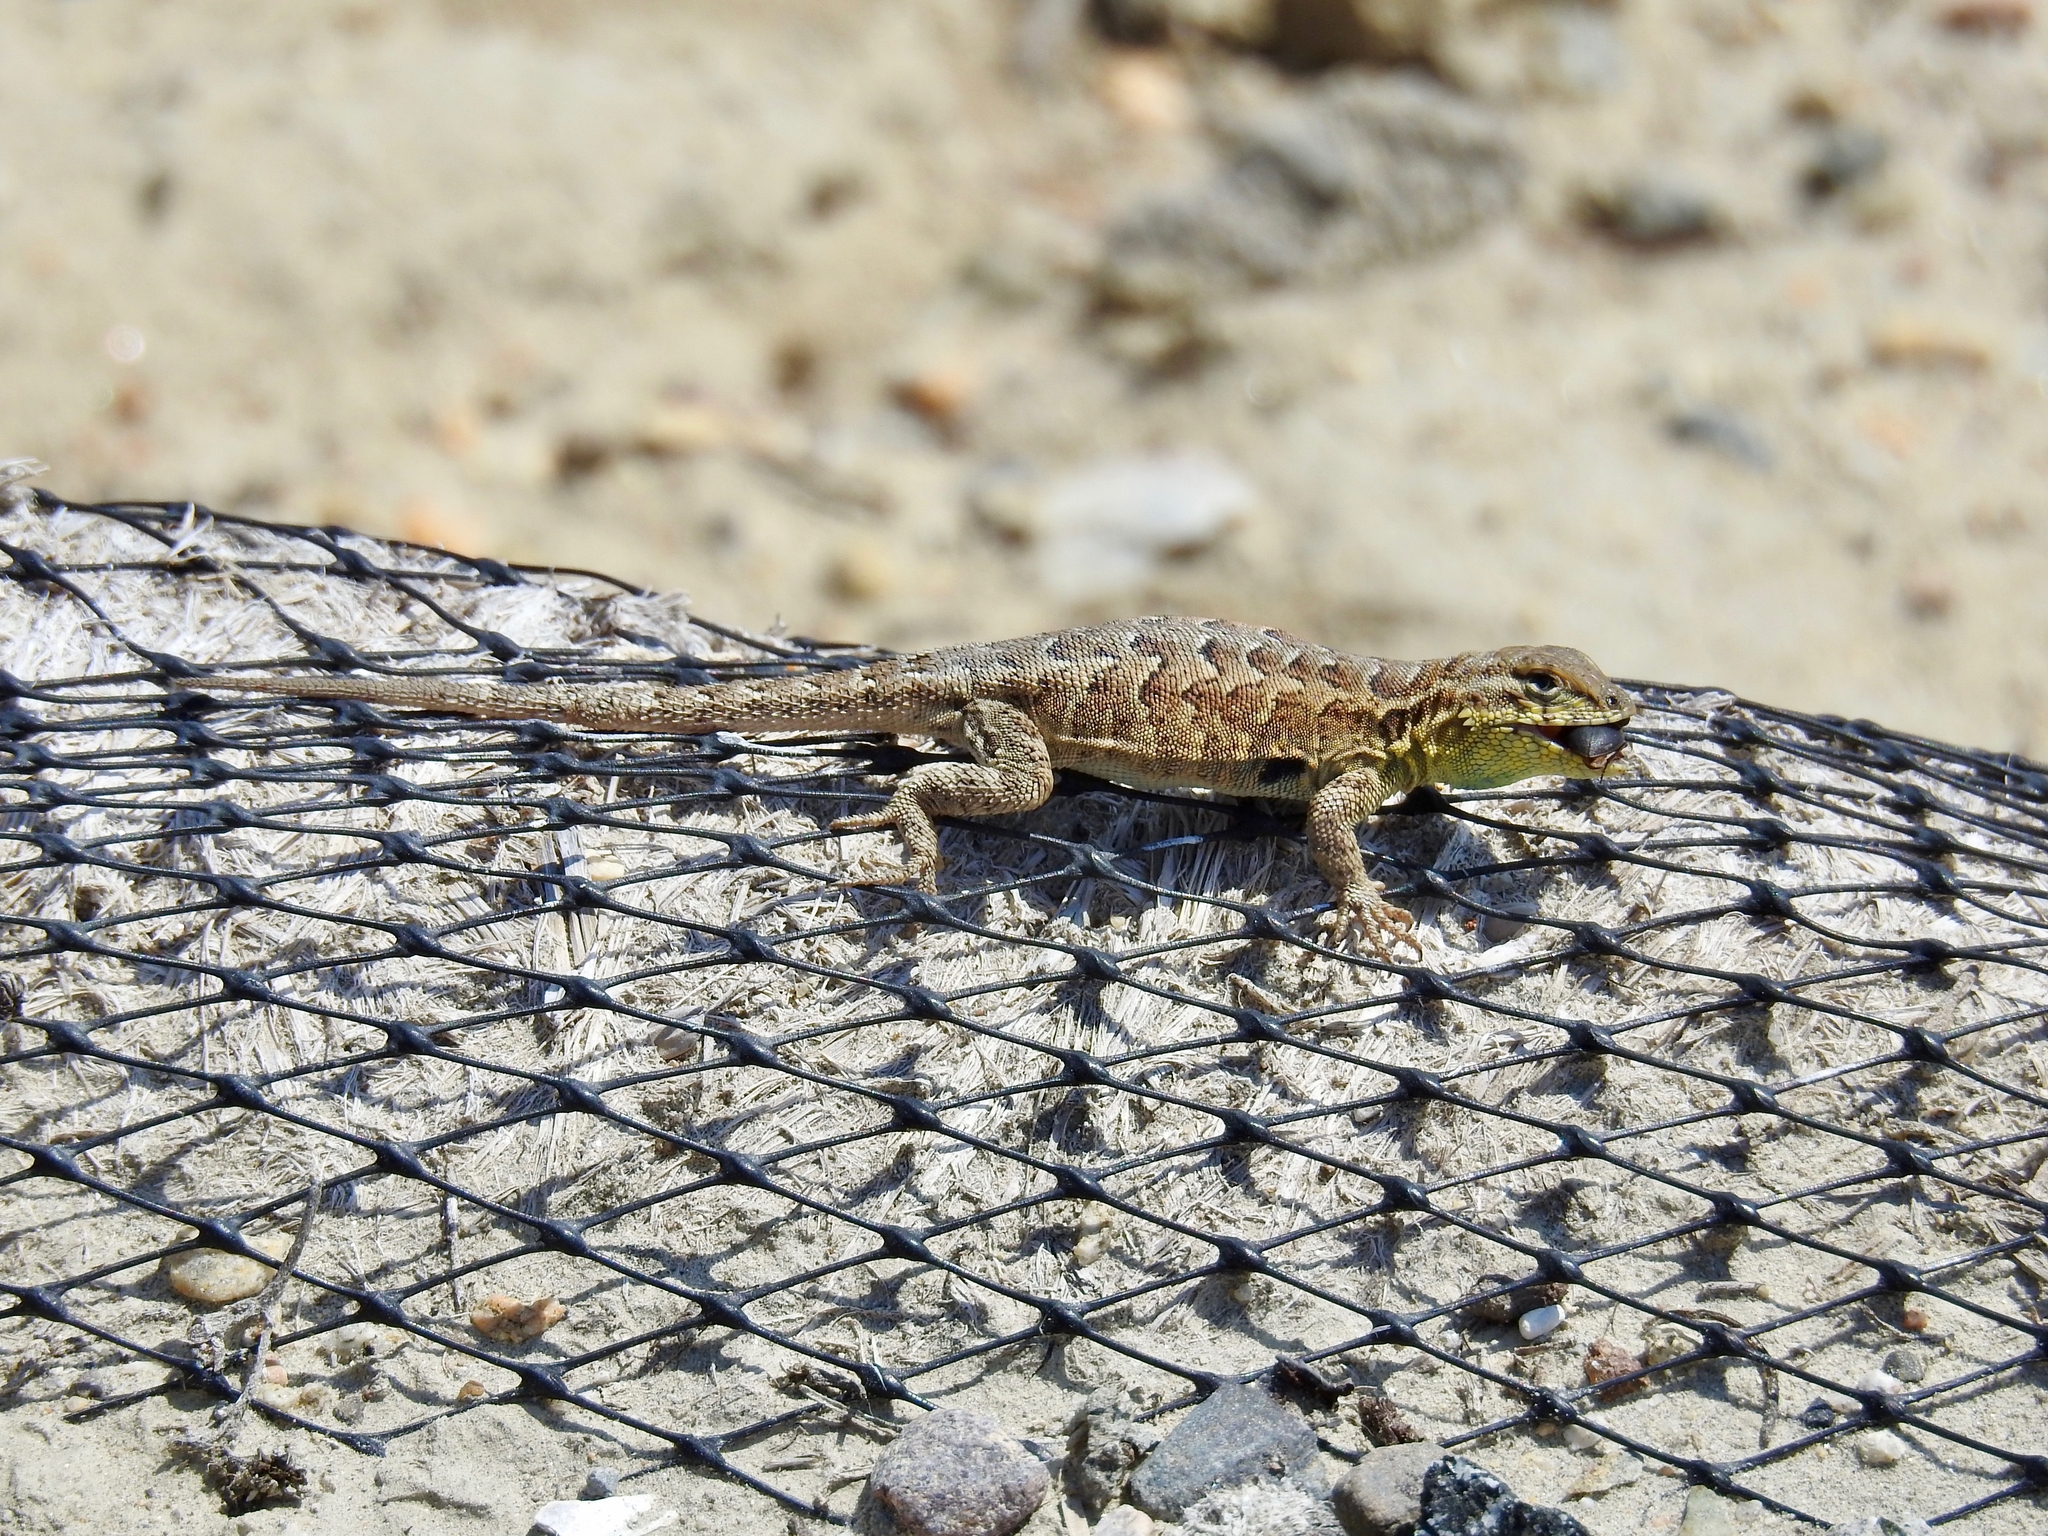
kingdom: Animalia
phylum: Chordata
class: Squamata
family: Phrynosomatidae
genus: Uta
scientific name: Uta stansburiana
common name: Side-blotched lizard
